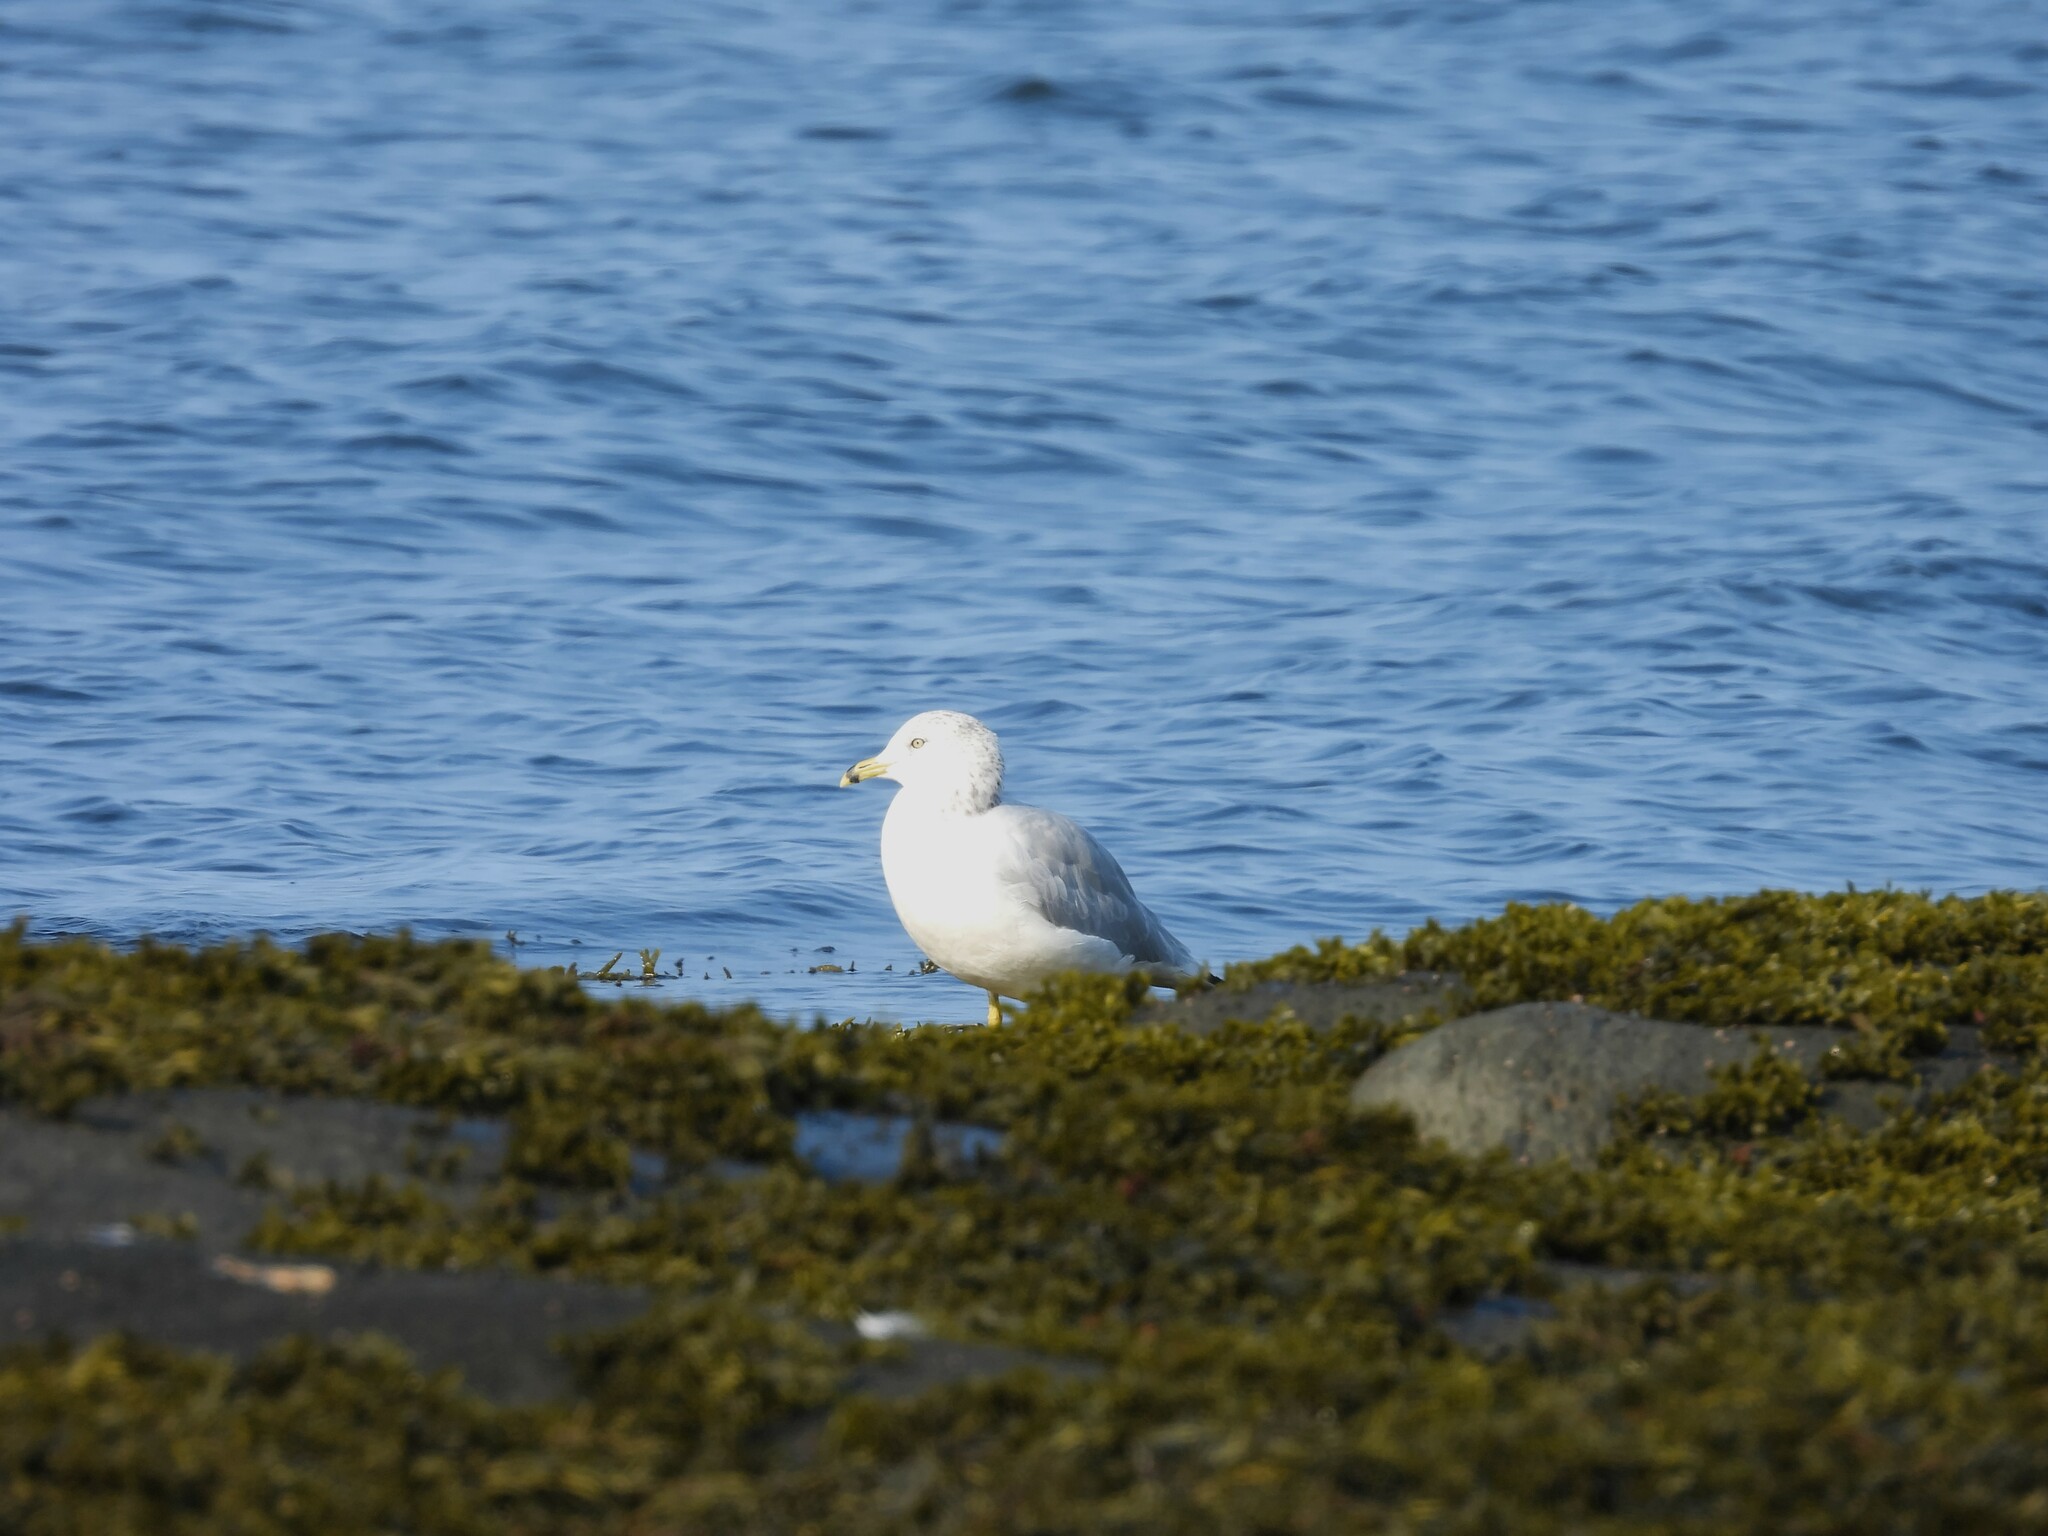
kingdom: Animalia
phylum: Chordata
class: Aves
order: Charadriiformes
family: Laridae
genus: Larus
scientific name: Larus delawarensis
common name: Ring-billed gull
